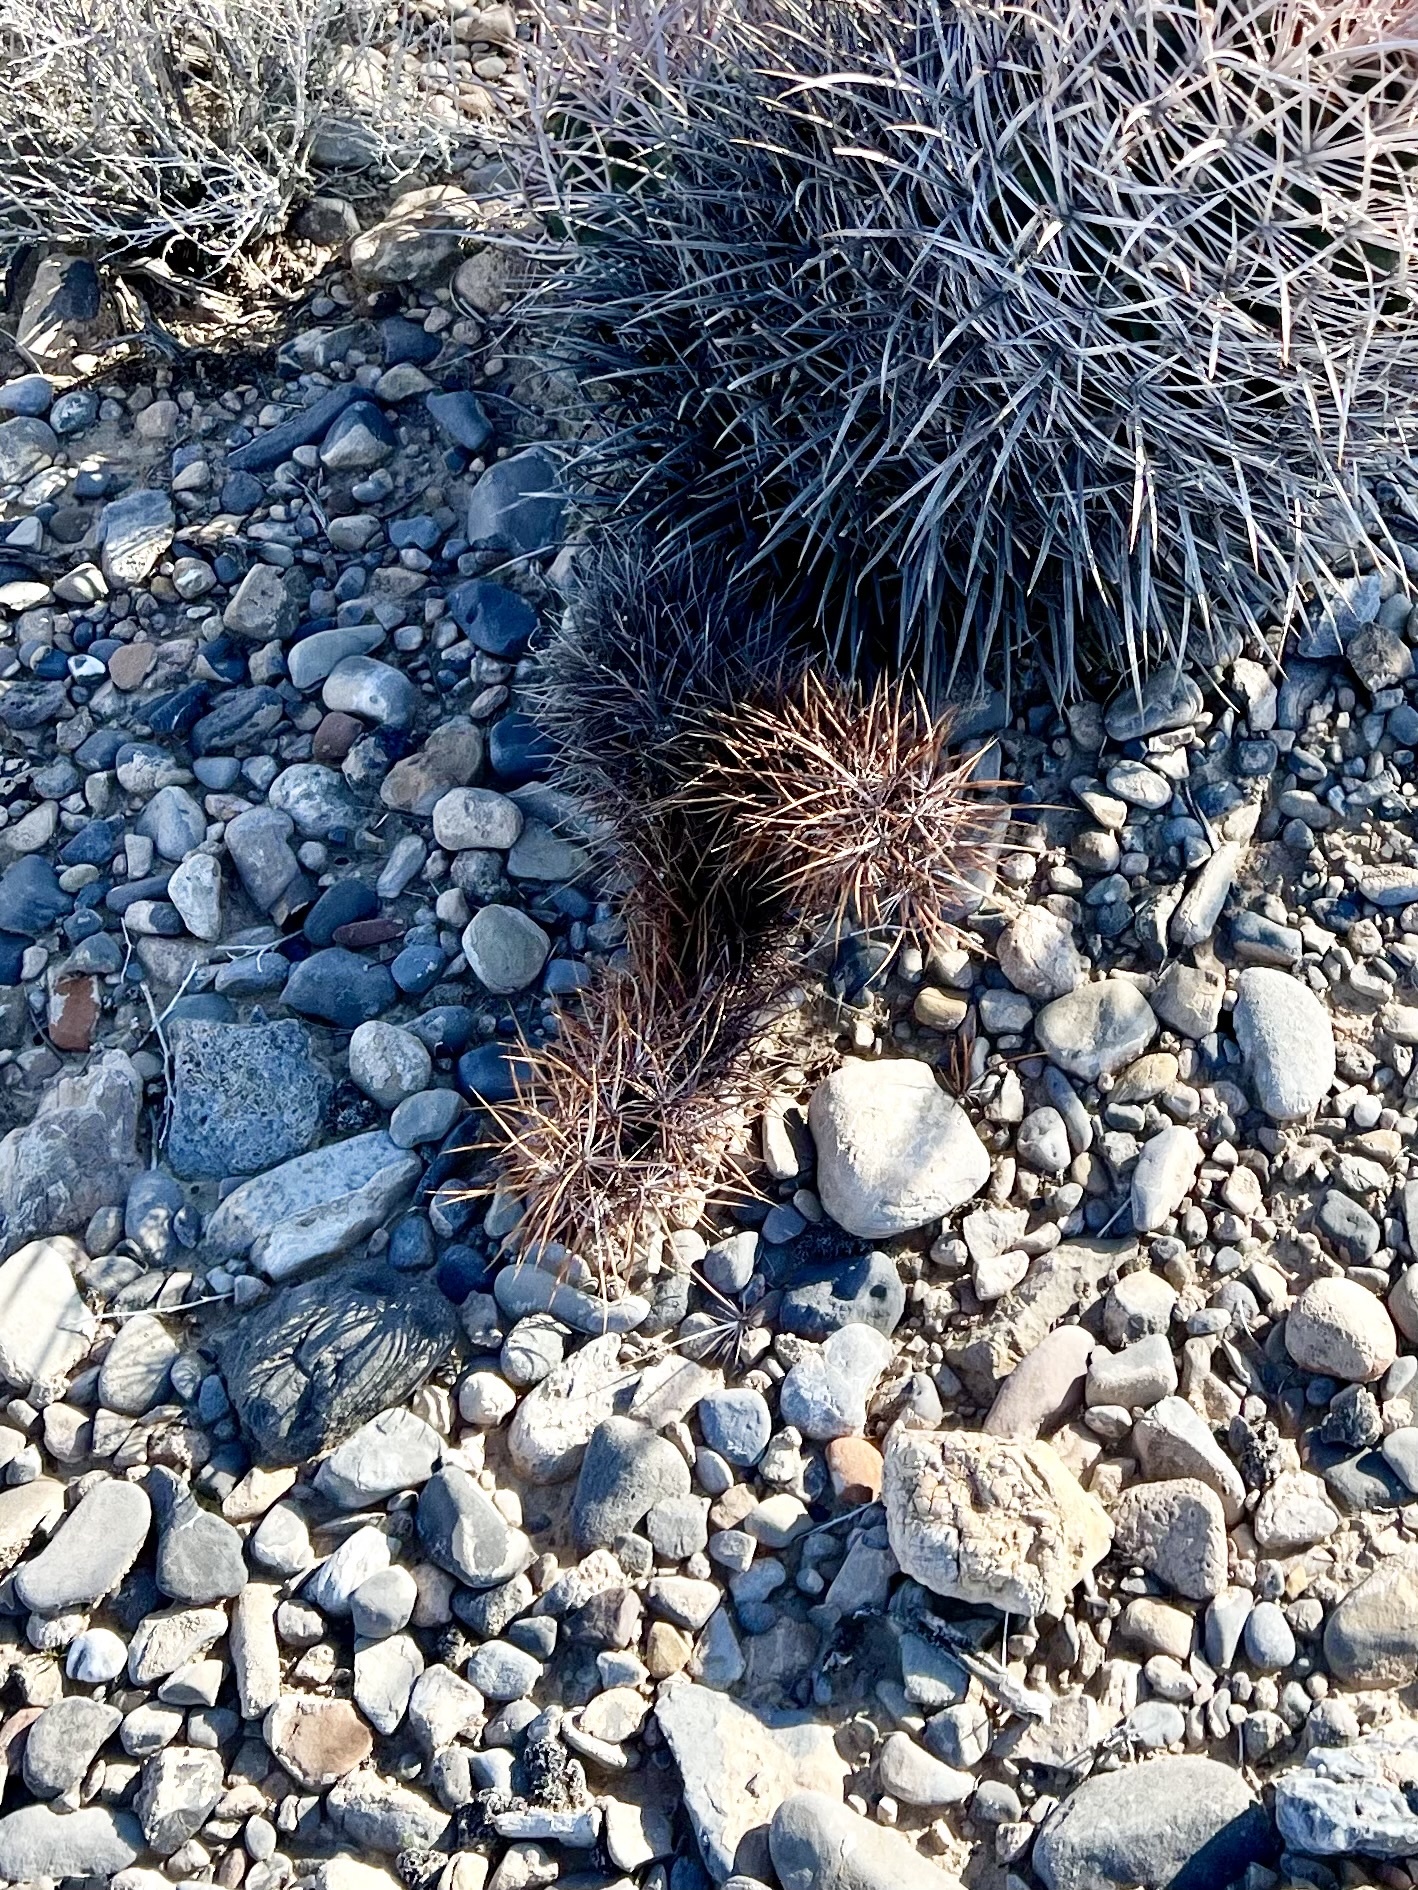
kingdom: Plantae
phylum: Tracheophyta
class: Magnoliopsida
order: Caryophyllales
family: Cactaceae
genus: Echinocereus
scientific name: Echinocereus engelmannii
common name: Engelmann's hedgehog cactus
